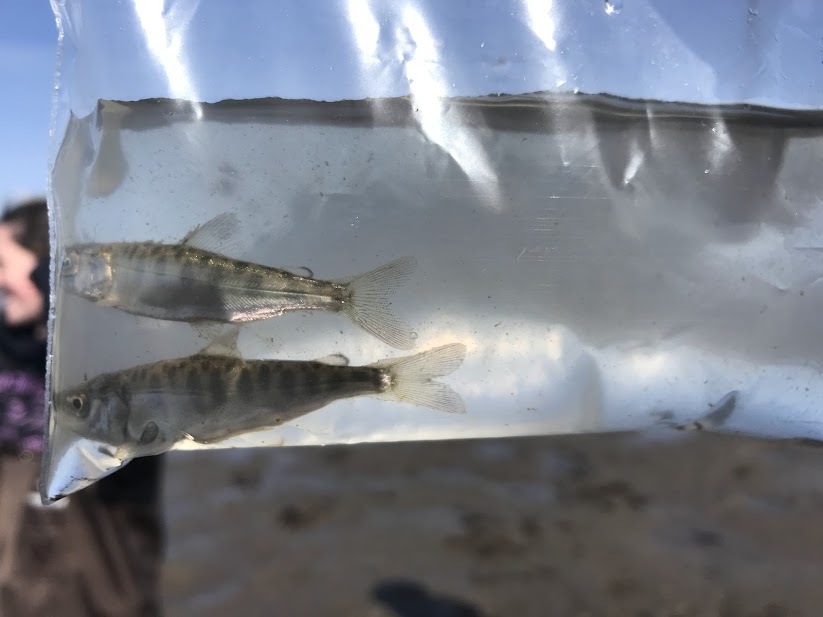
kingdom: Animalia
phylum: Chordata
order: Salmoniformes
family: Salmonidae
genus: Oncorhynchus
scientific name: Oncorhynchus tshawytscha
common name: Chinook salmon
